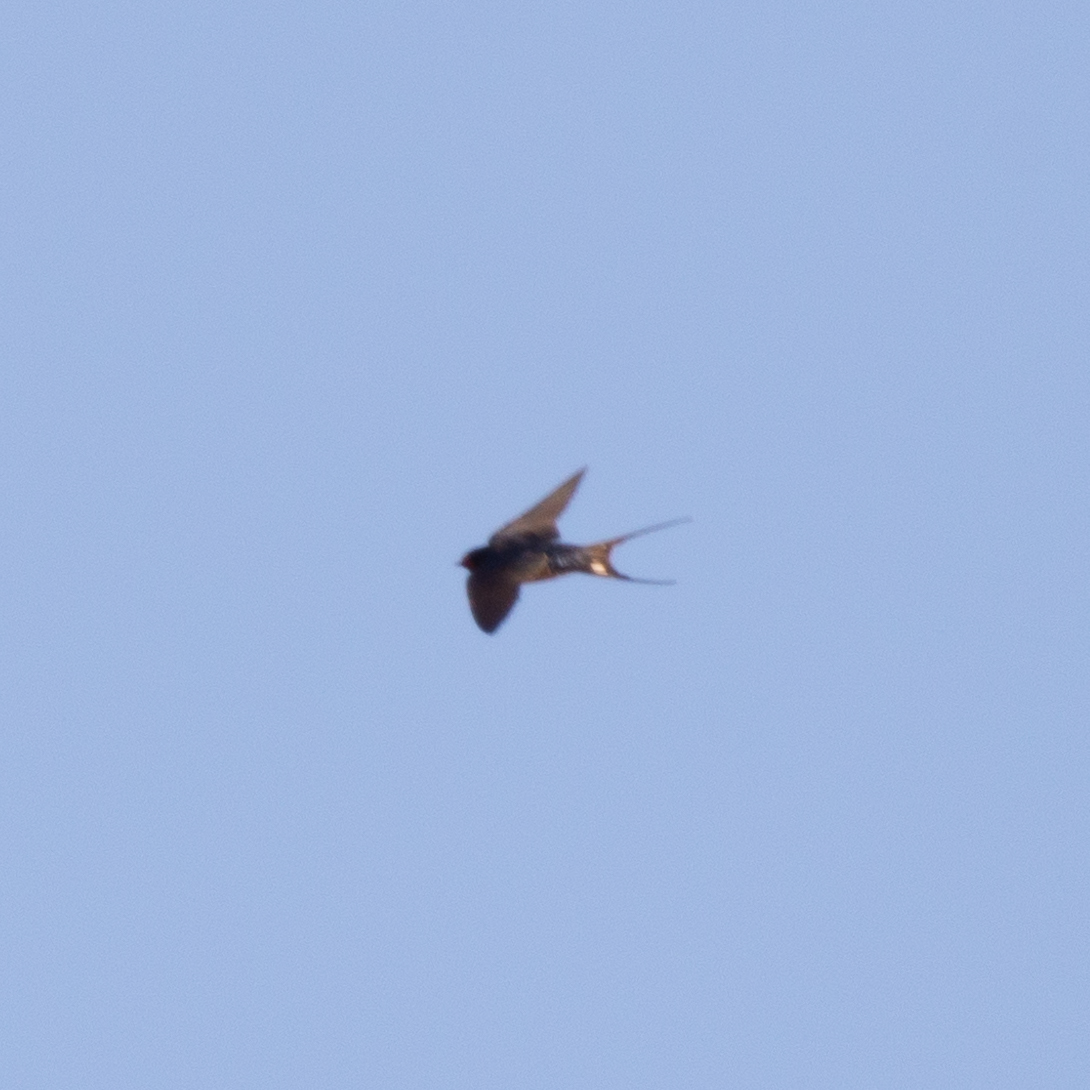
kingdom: Animalia
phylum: Chordata
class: Aves
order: Passeriformes
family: Hirundinidae
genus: Hirundo
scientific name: Hirundo rustica
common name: Barn swallow
